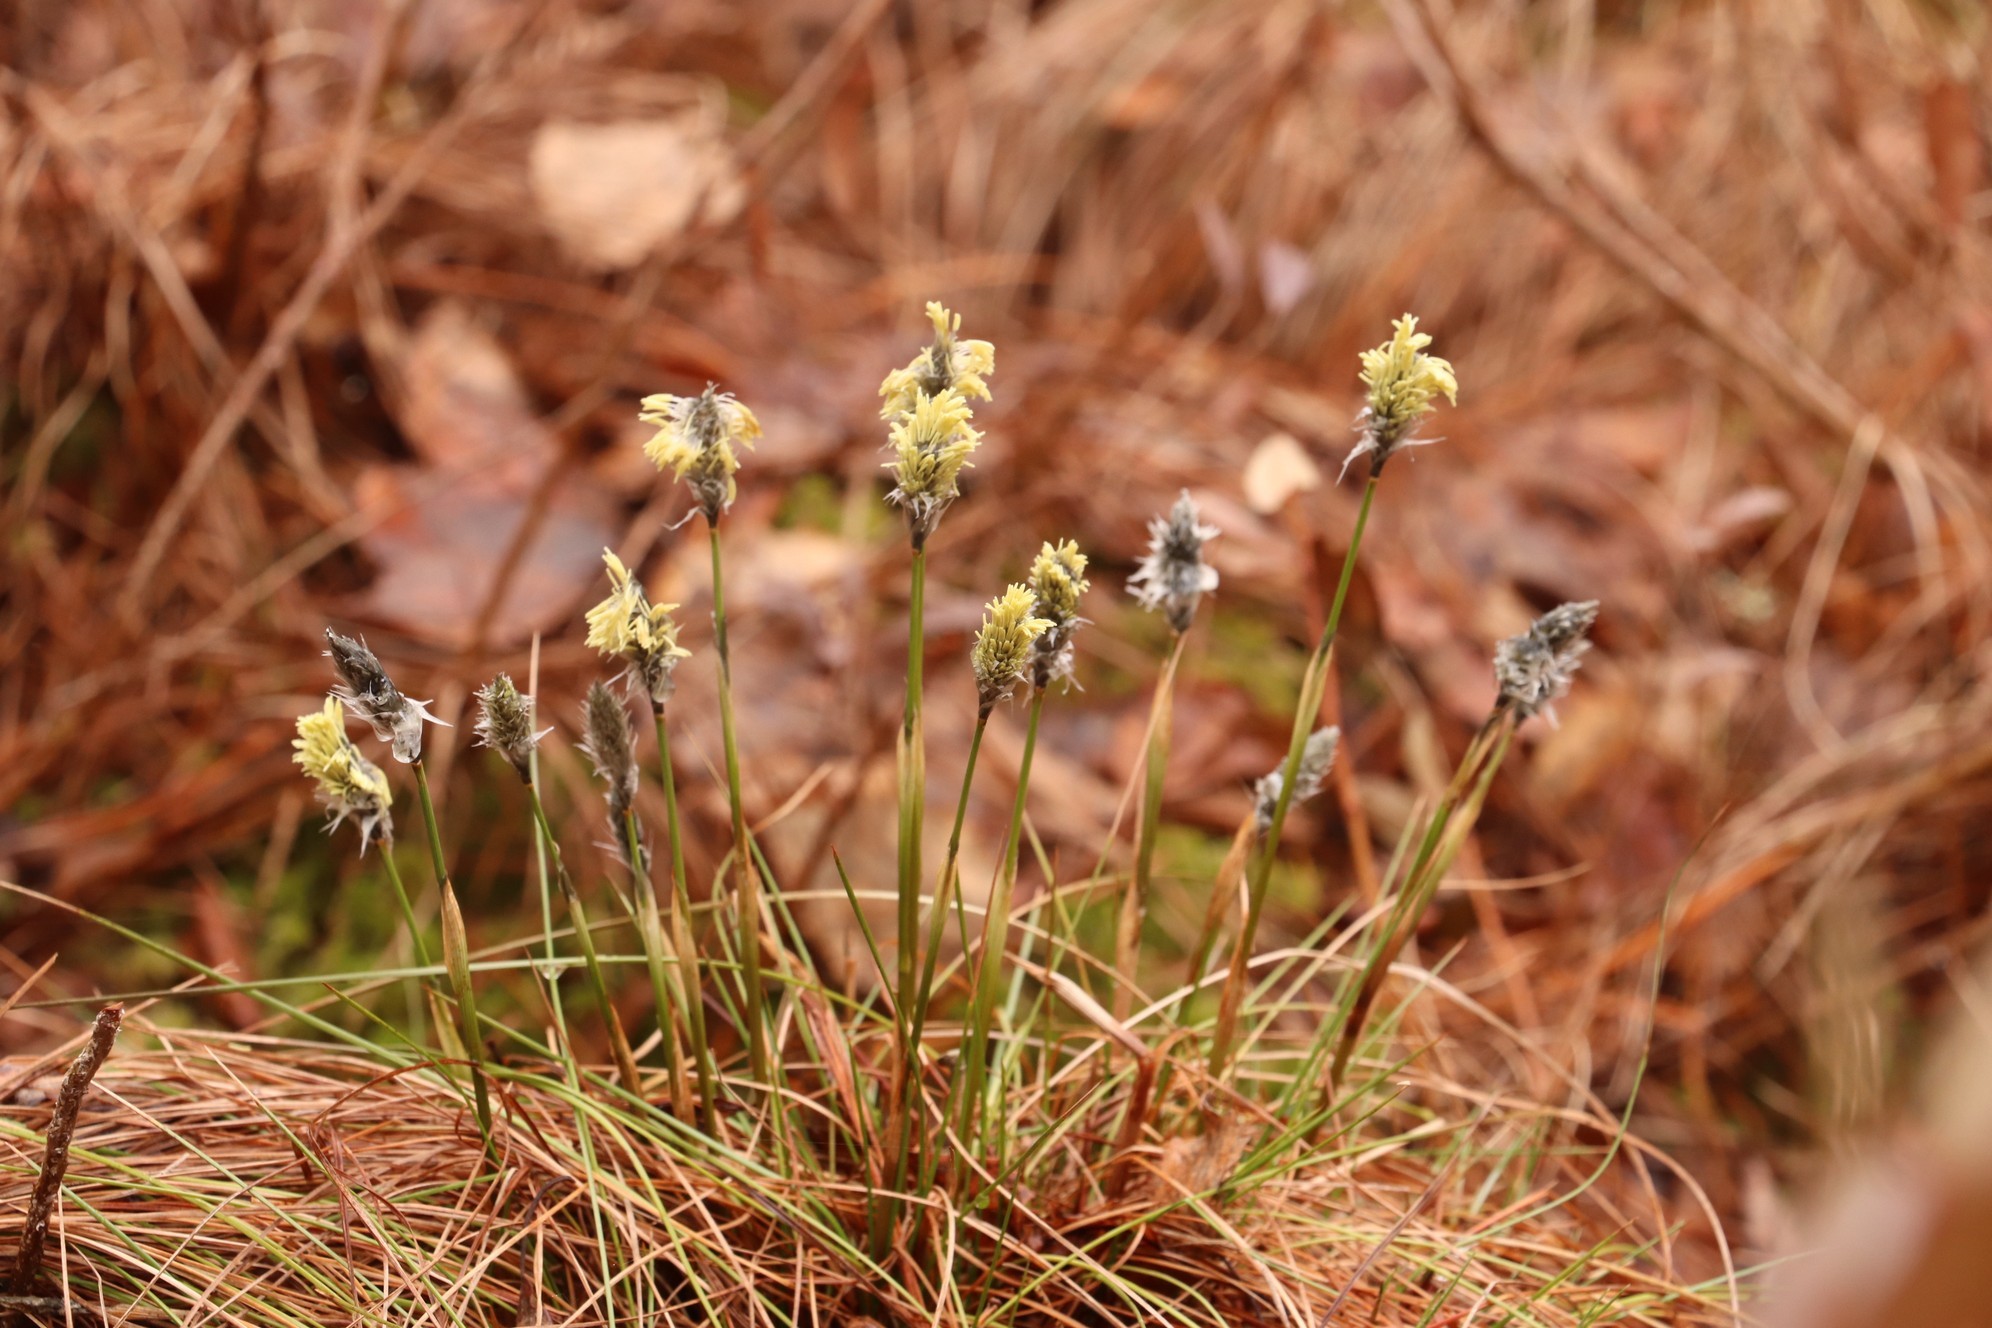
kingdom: Plantae
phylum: Tracheophyta
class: Liliopsida
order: Poales
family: Cyperaceae
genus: Eriophorum
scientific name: Eriophorum vaginatum
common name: Hare's-tail cottongrass
